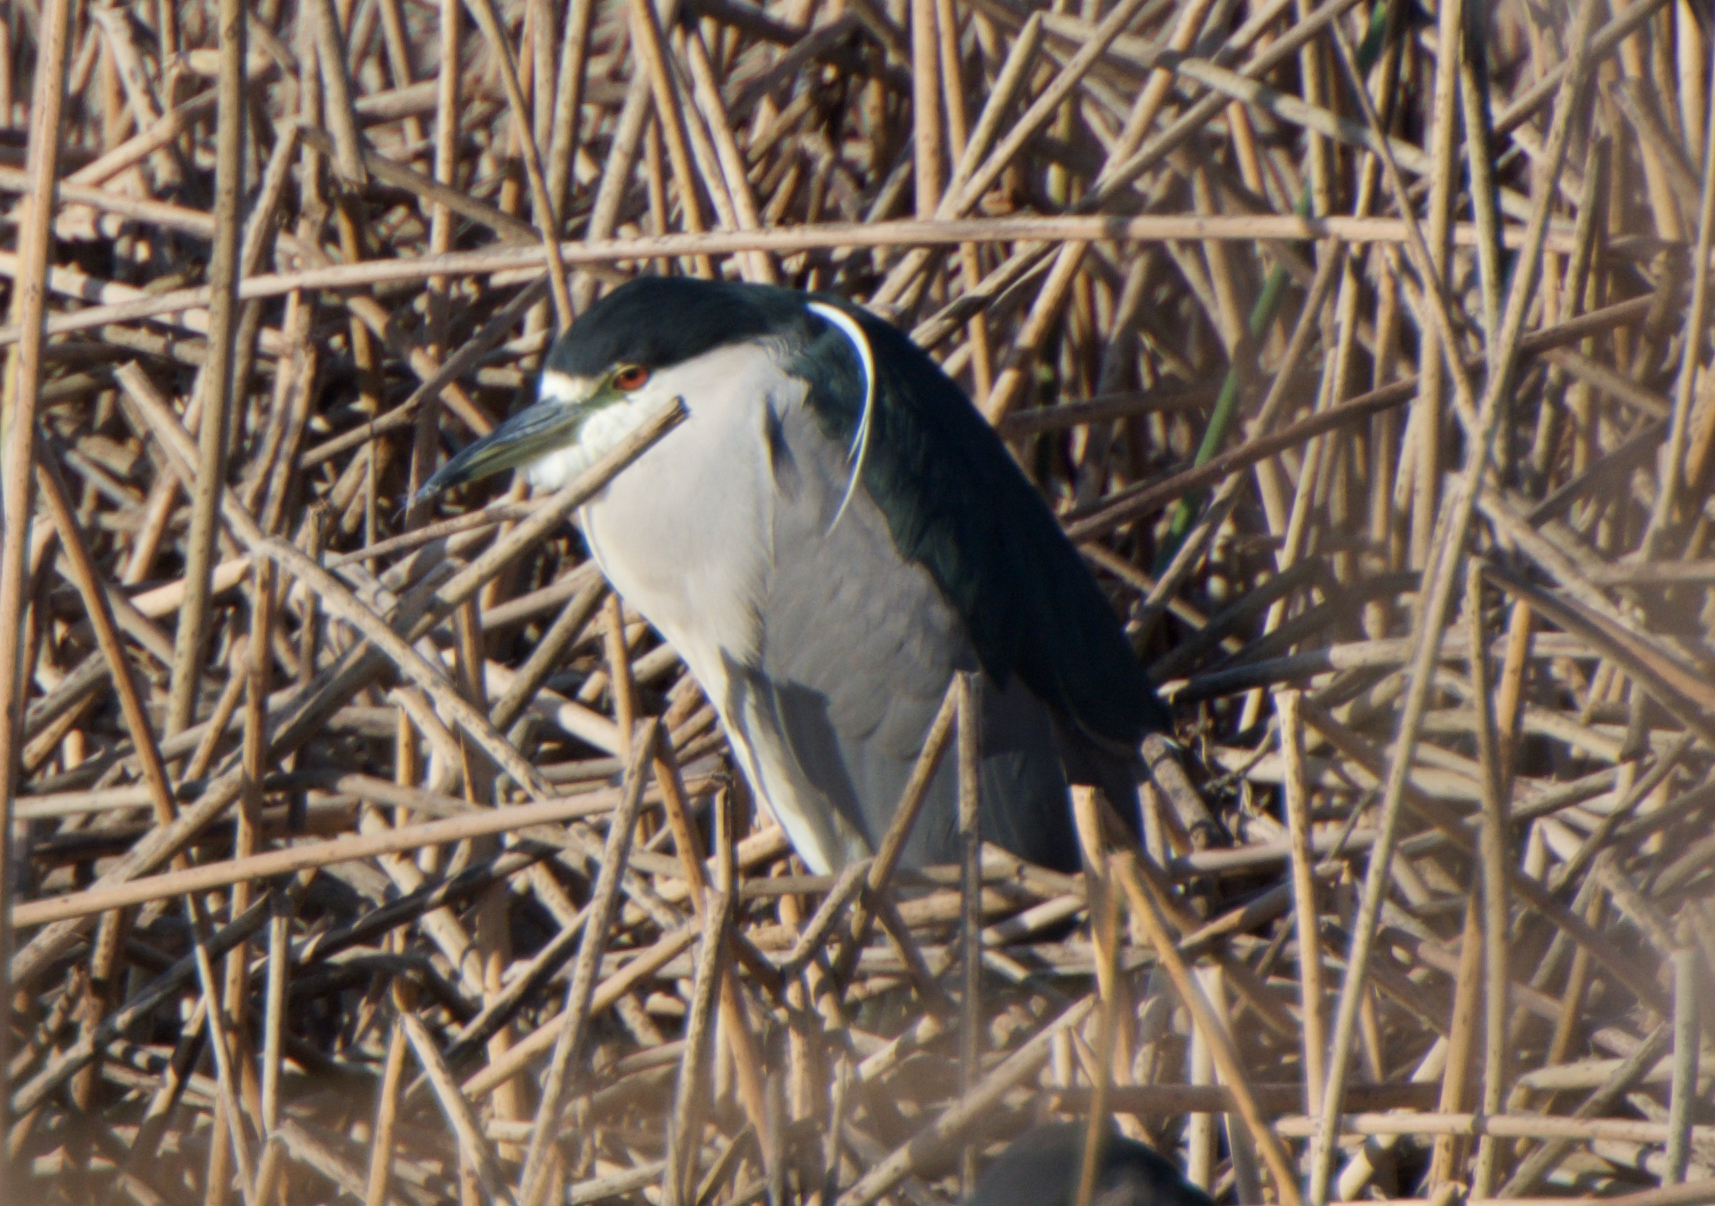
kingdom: Animalia
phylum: Chordata
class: Aves
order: Pelecaniformes
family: Ardeidae
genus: Nycticorax
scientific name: Nycticorax nycticorax
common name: Black-crowned night heron
